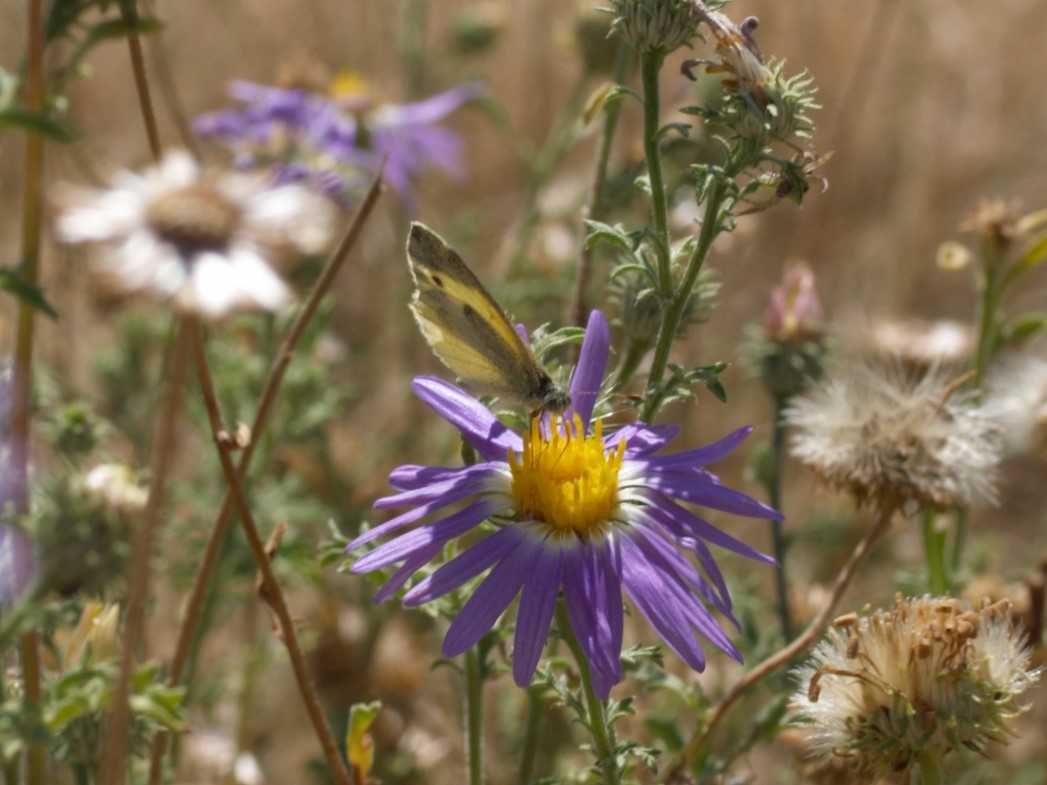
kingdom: Animalia
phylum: Arthropoda
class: Insecta
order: Lepidoptera
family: Pieridae
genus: Nathalis
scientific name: Nathalis iole
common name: Dainty sulphur
